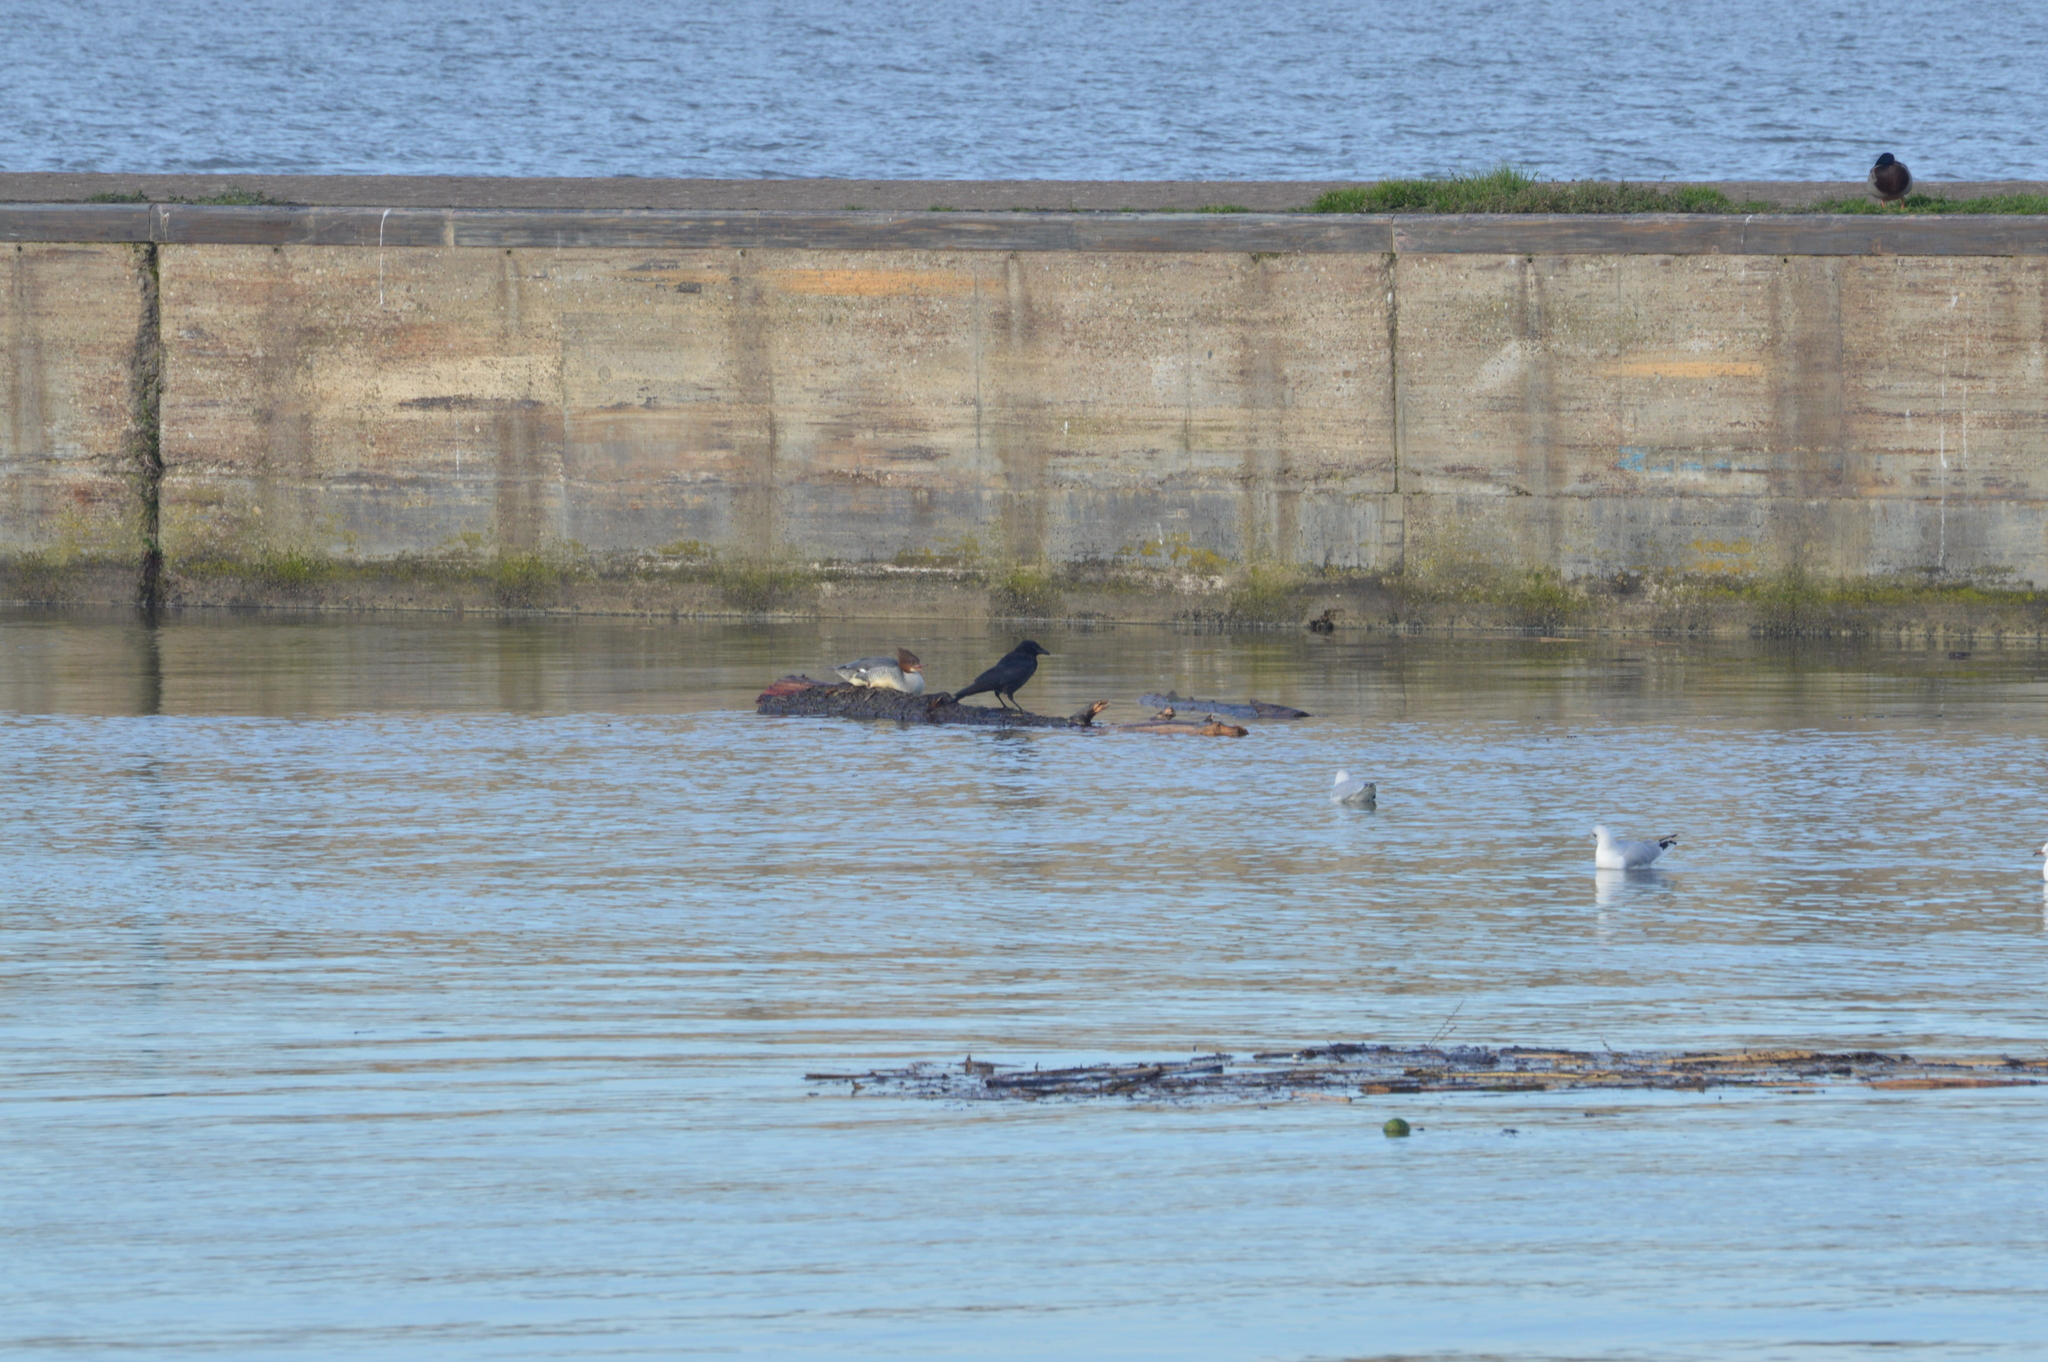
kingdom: Animalia
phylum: Chordata
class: Aves
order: Passeriformes
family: Corvidae
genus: Corvus
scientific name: Corvus corone
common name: Carrion crow
